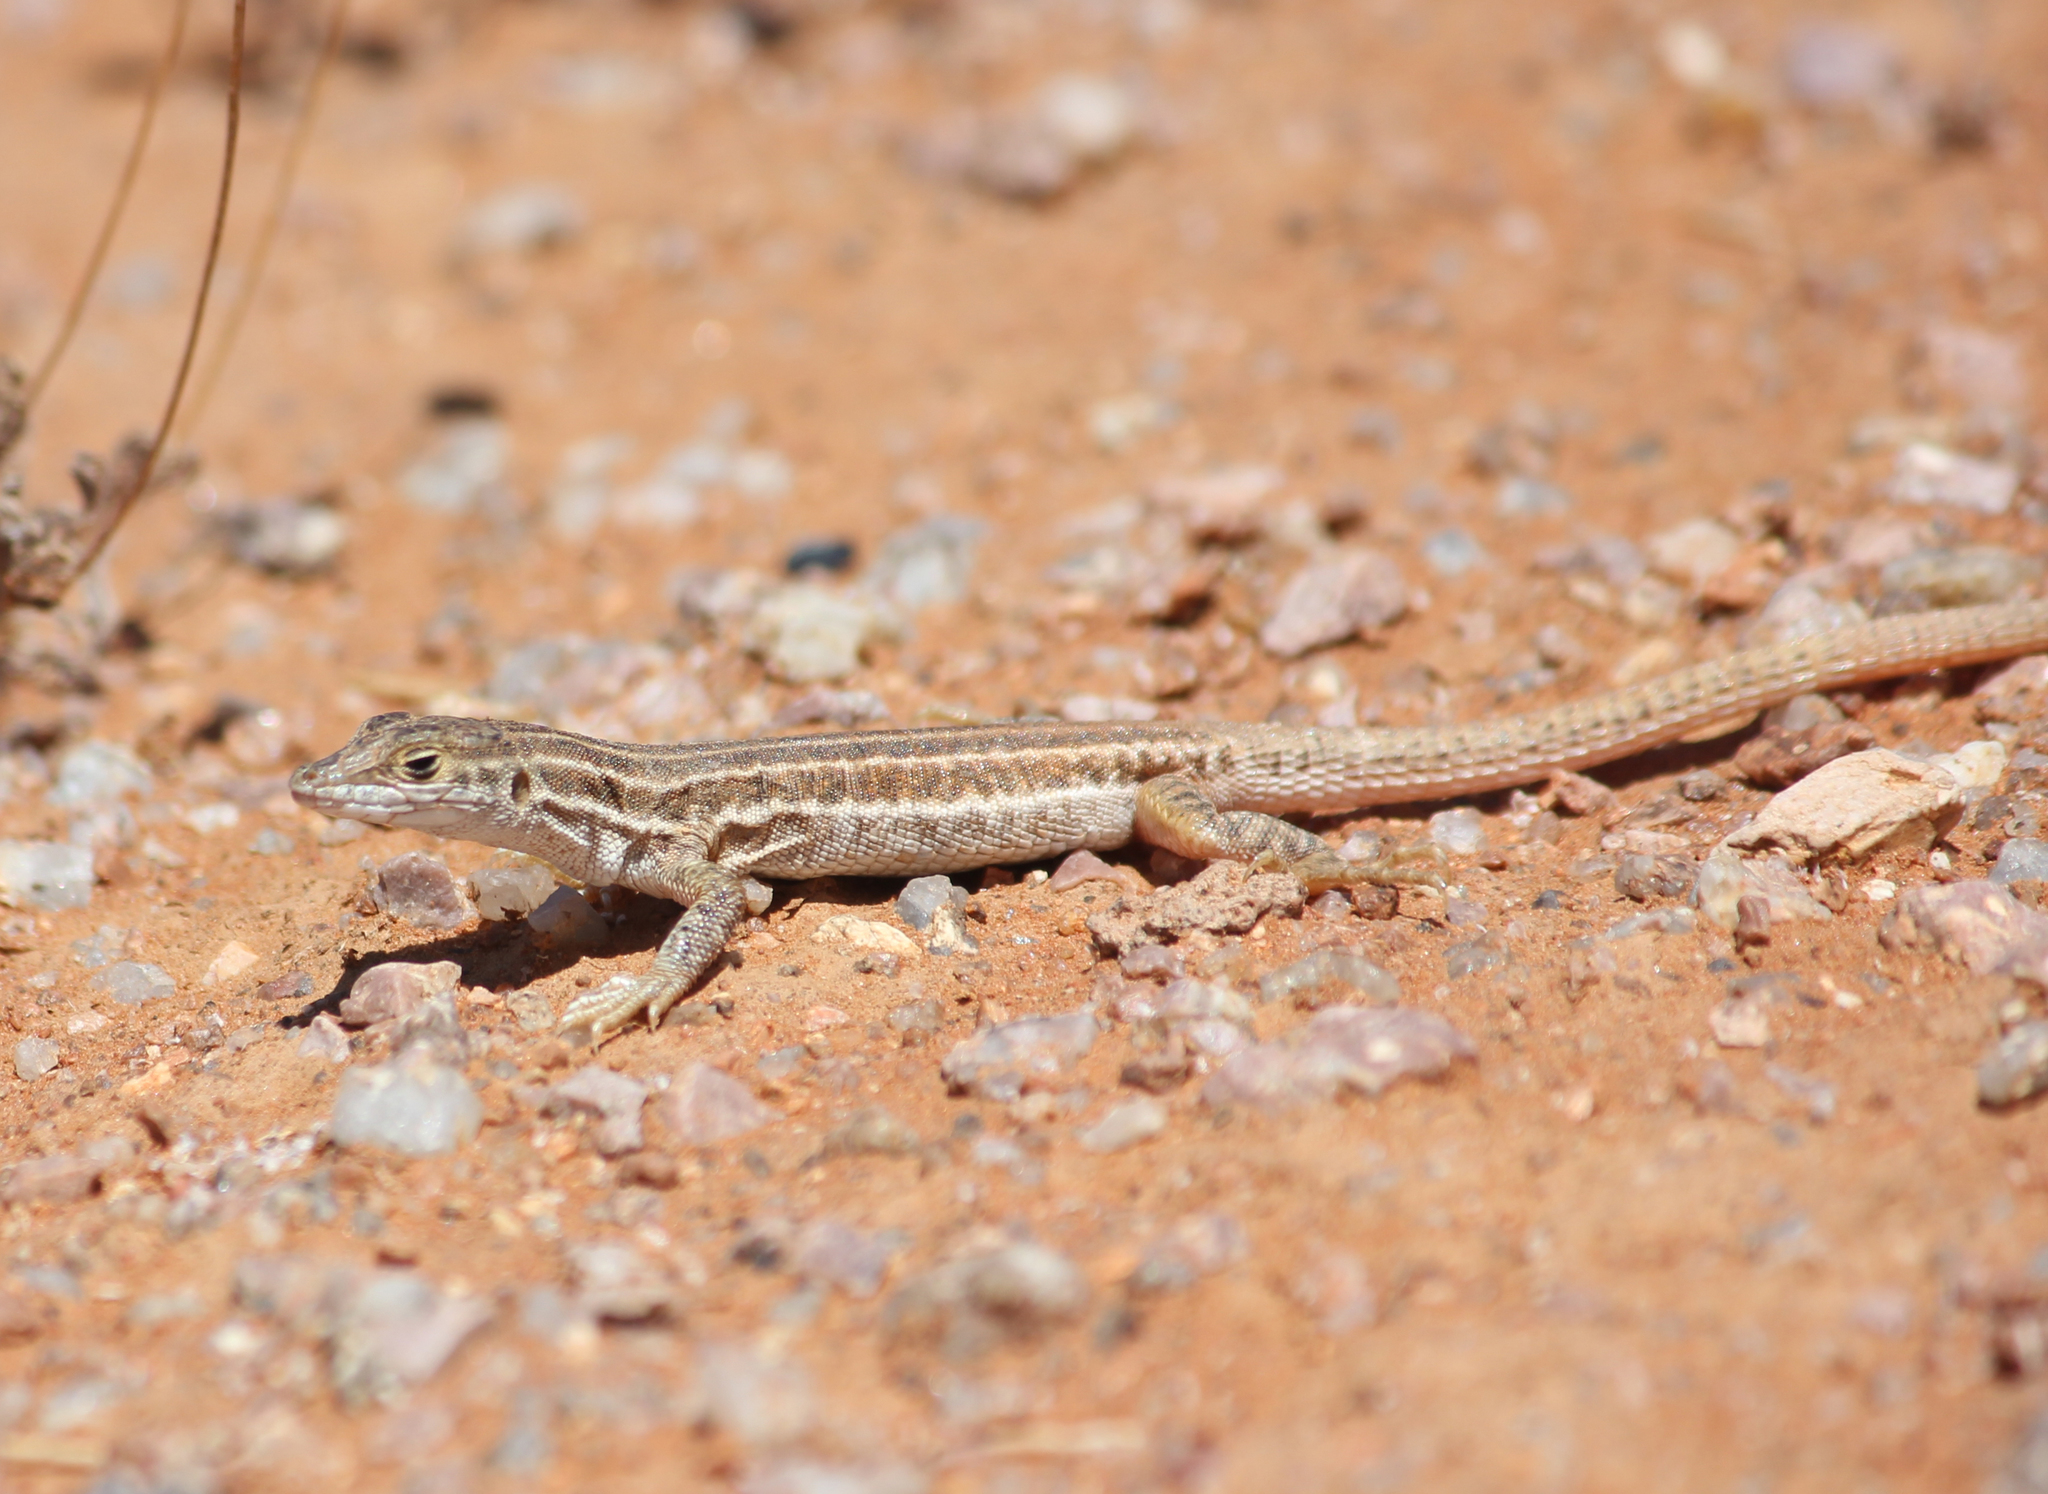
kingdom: Animalia
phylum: Chordata
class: Squamata
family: Lacertidae
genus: Pedioplanis
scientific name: Pedioplanis namaquensis
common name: Namaqua sand lizard
